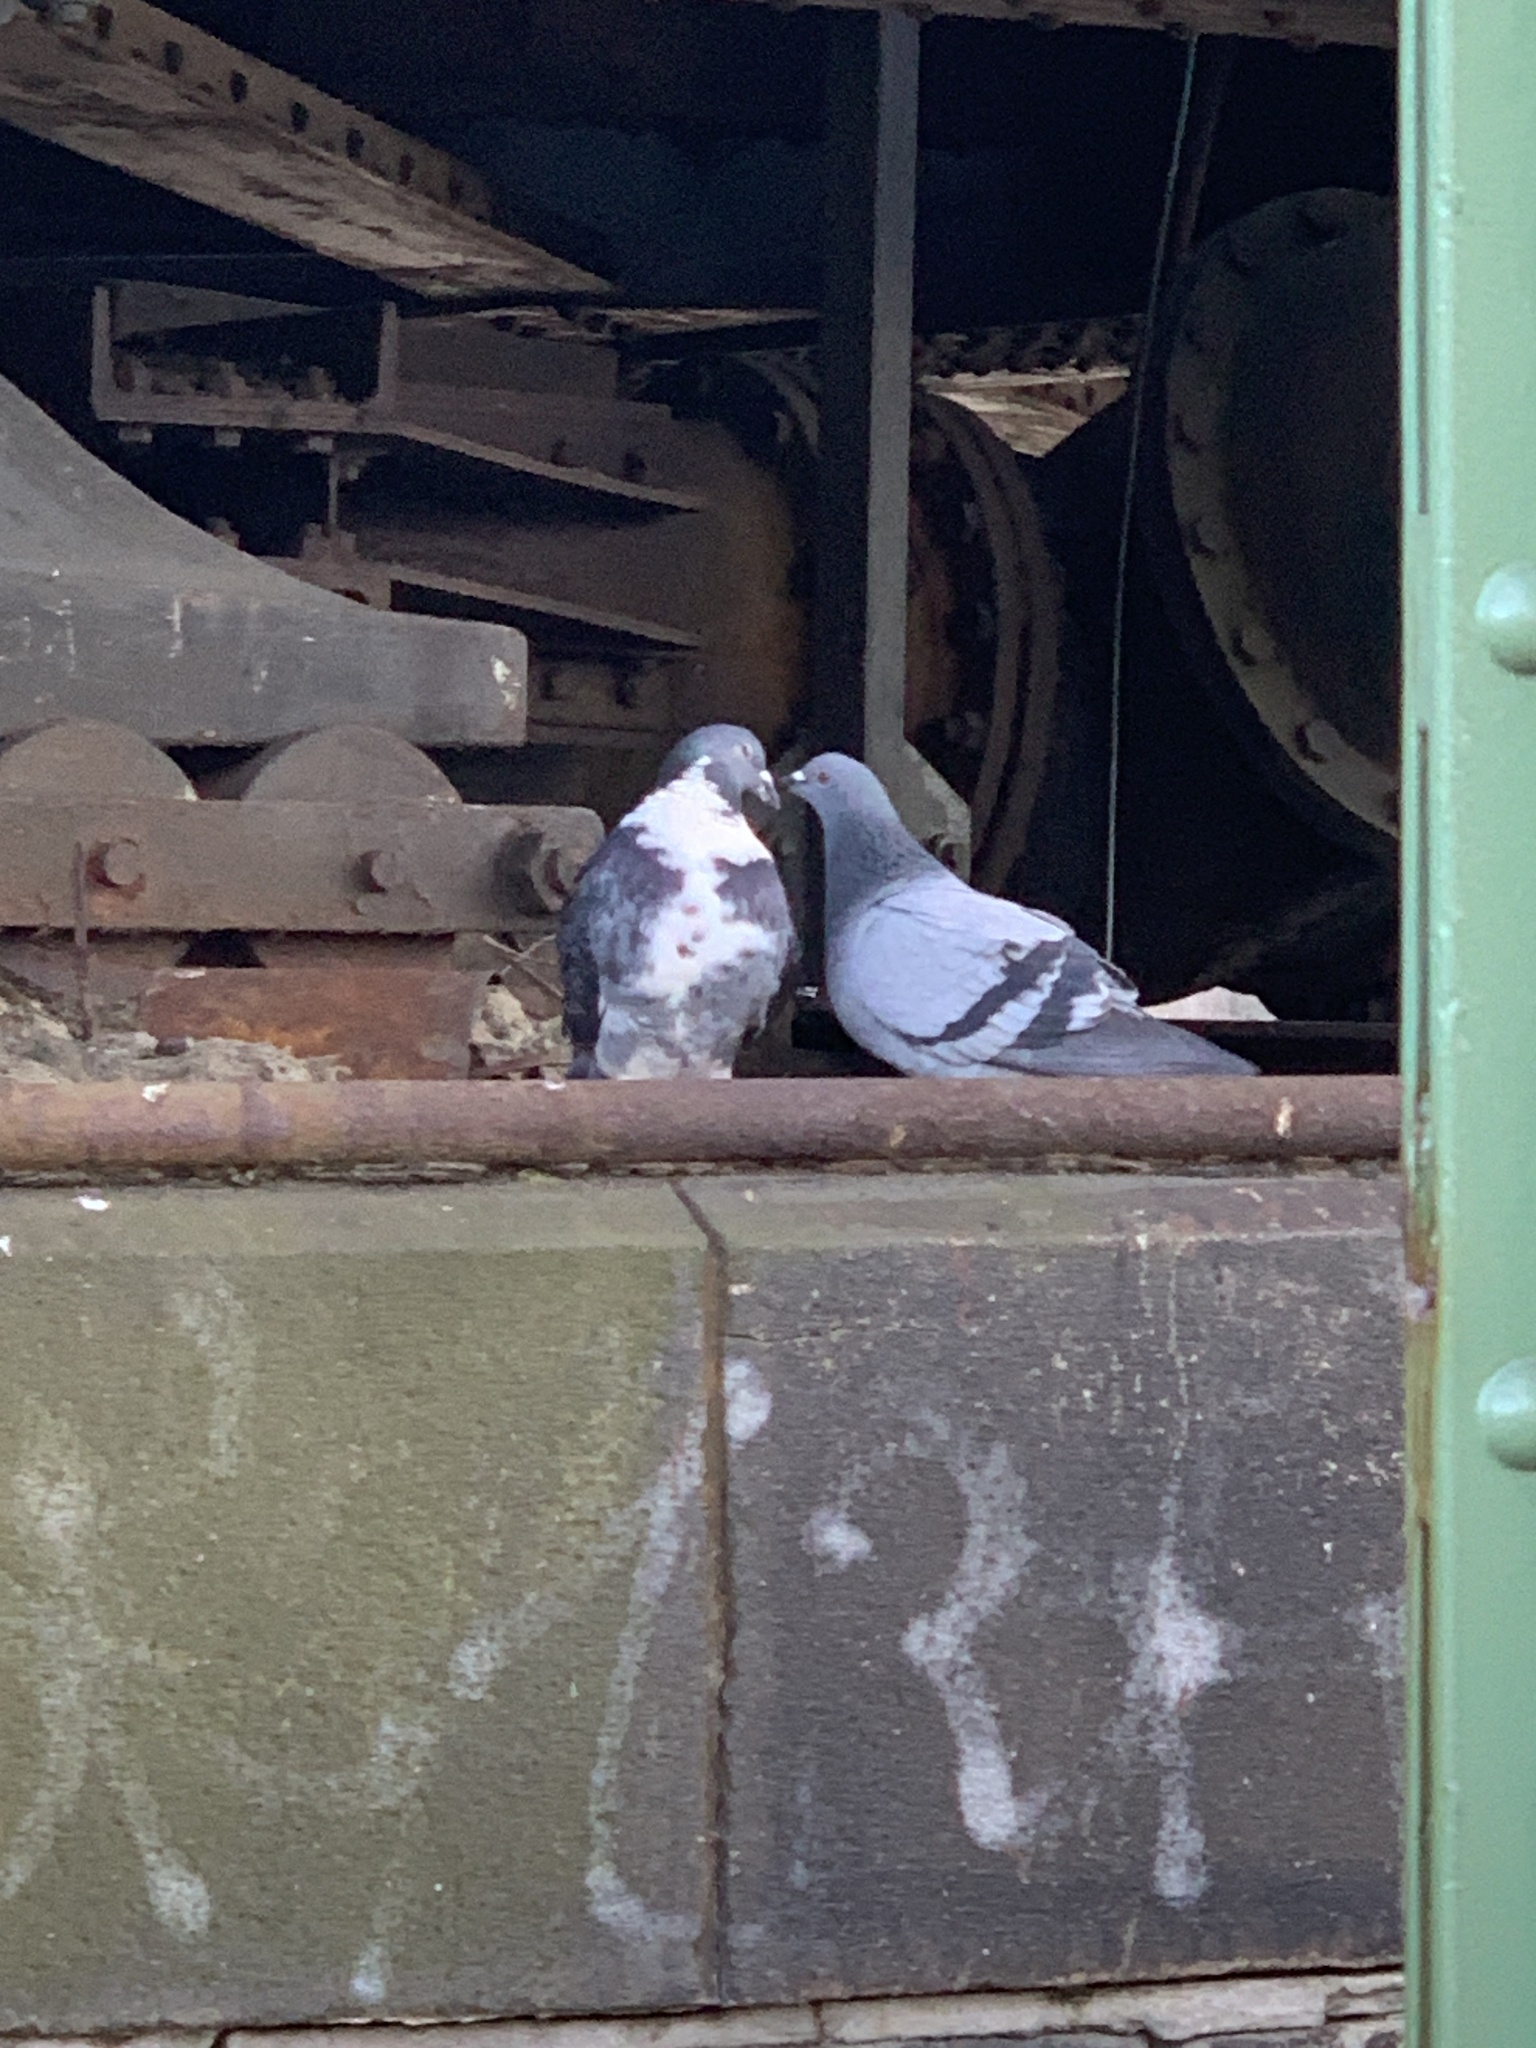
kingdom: Animalia
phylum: Chordata
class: Aves
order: Columbiformes
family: Columbidae
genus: Columba
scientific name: Columba livia
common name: Rock pigeon
